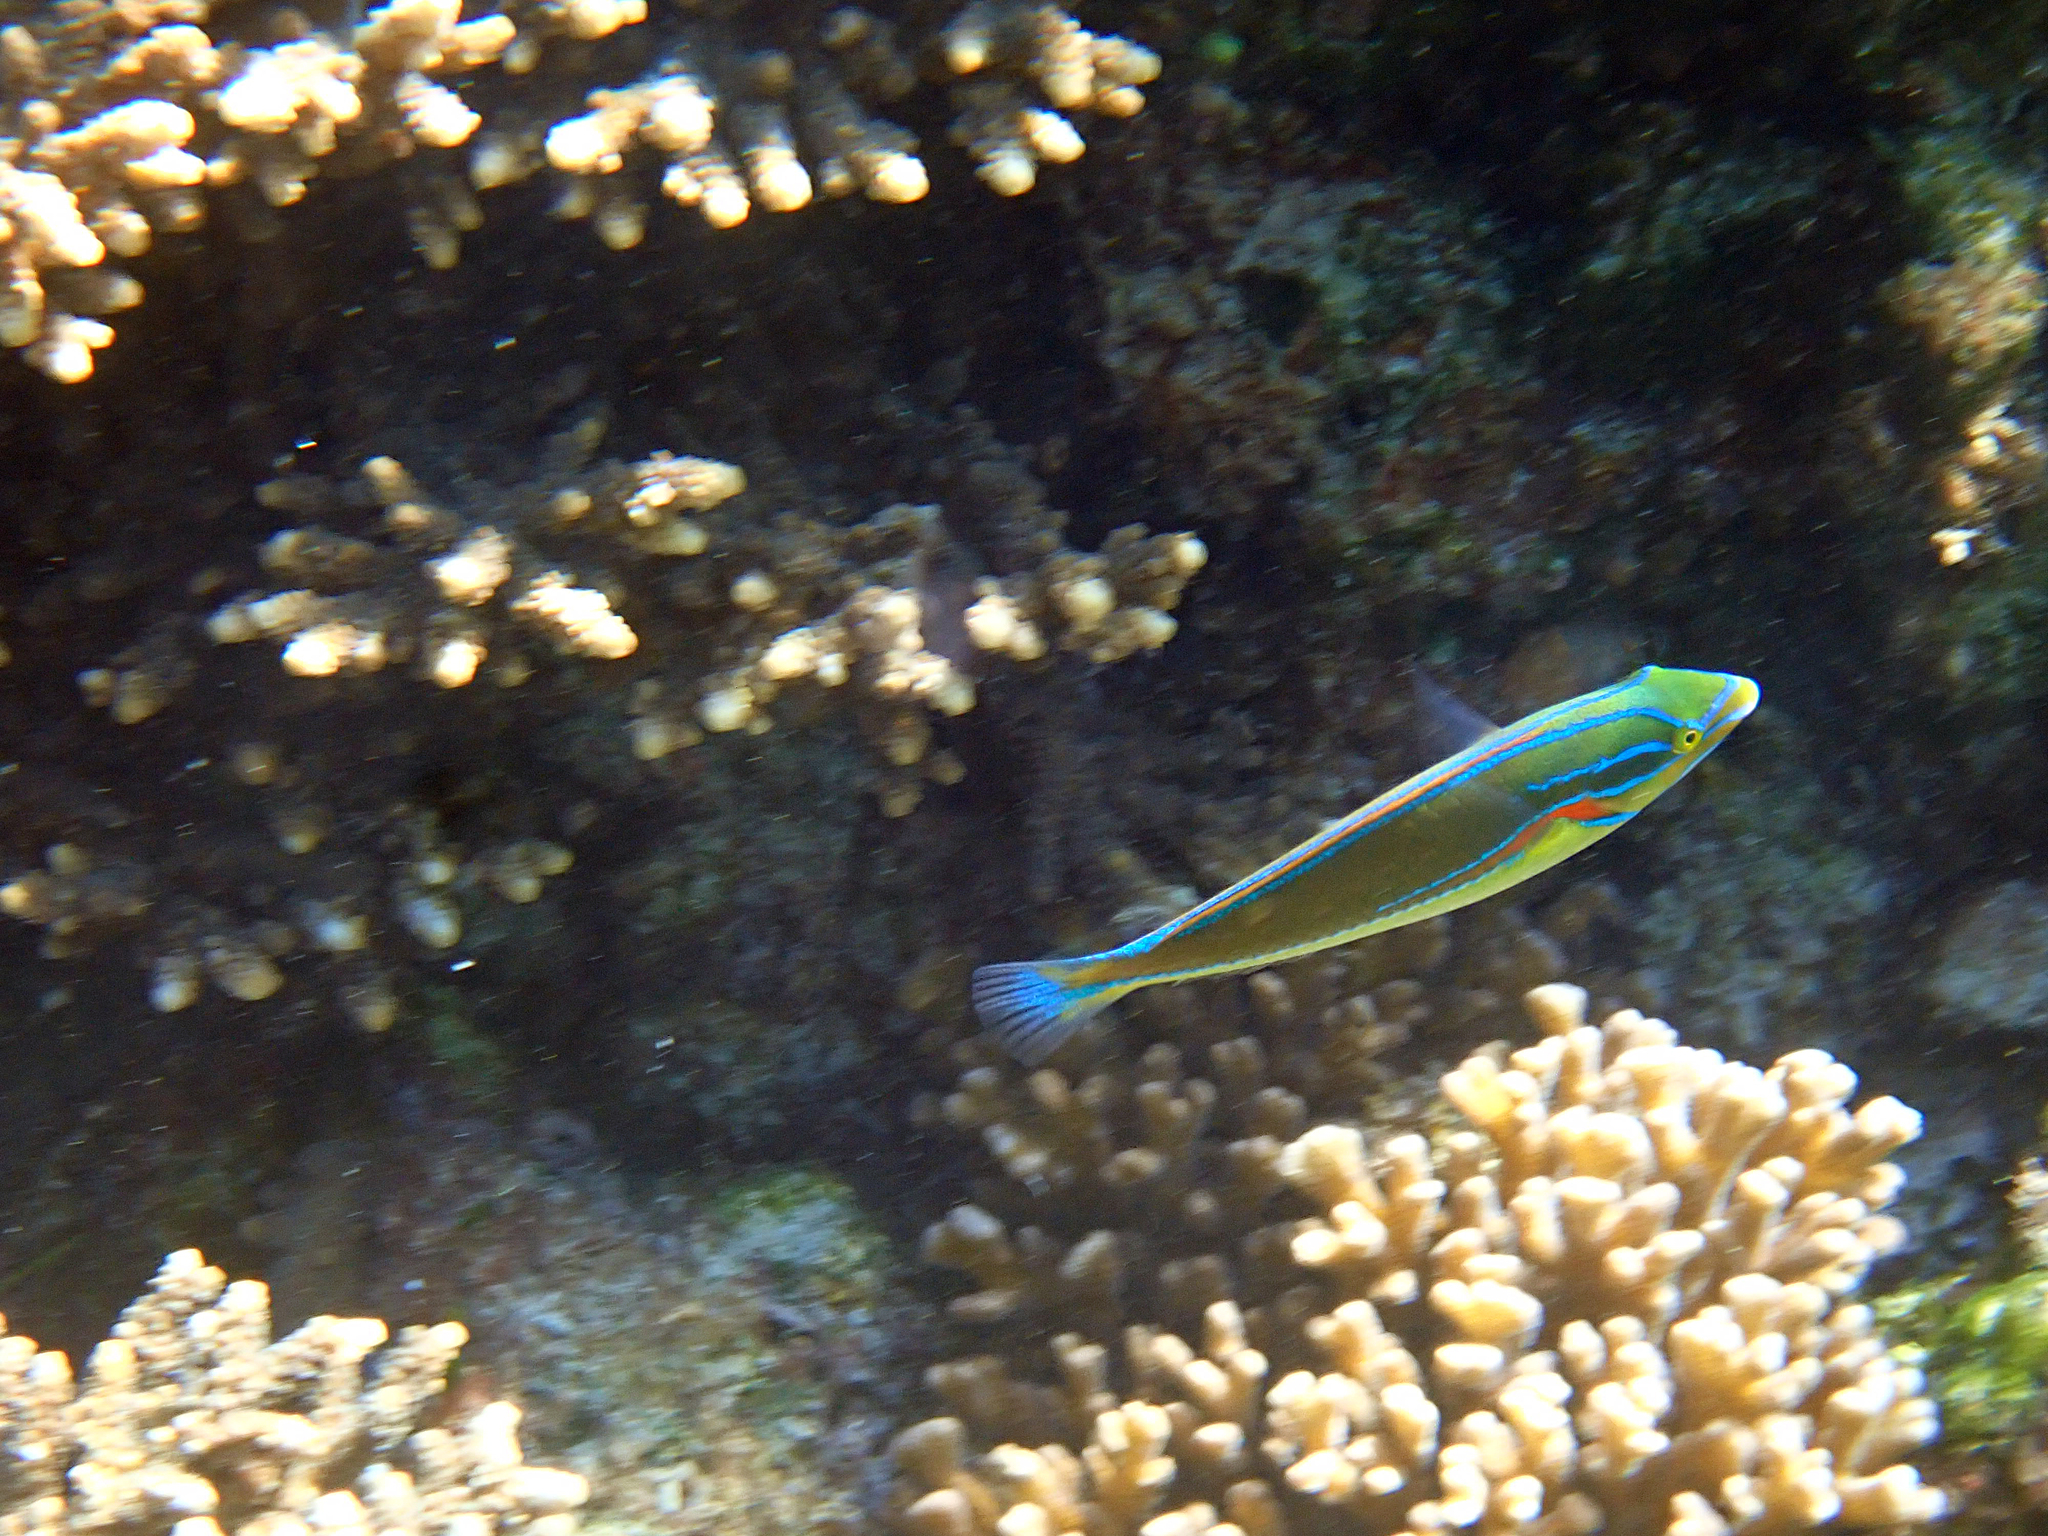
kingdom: Animalia
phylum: Chordata
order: Perciformes
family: Labridae
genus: Stethojulis
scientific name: Stethojulis bandanensis
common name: Red shoulder wrasse
